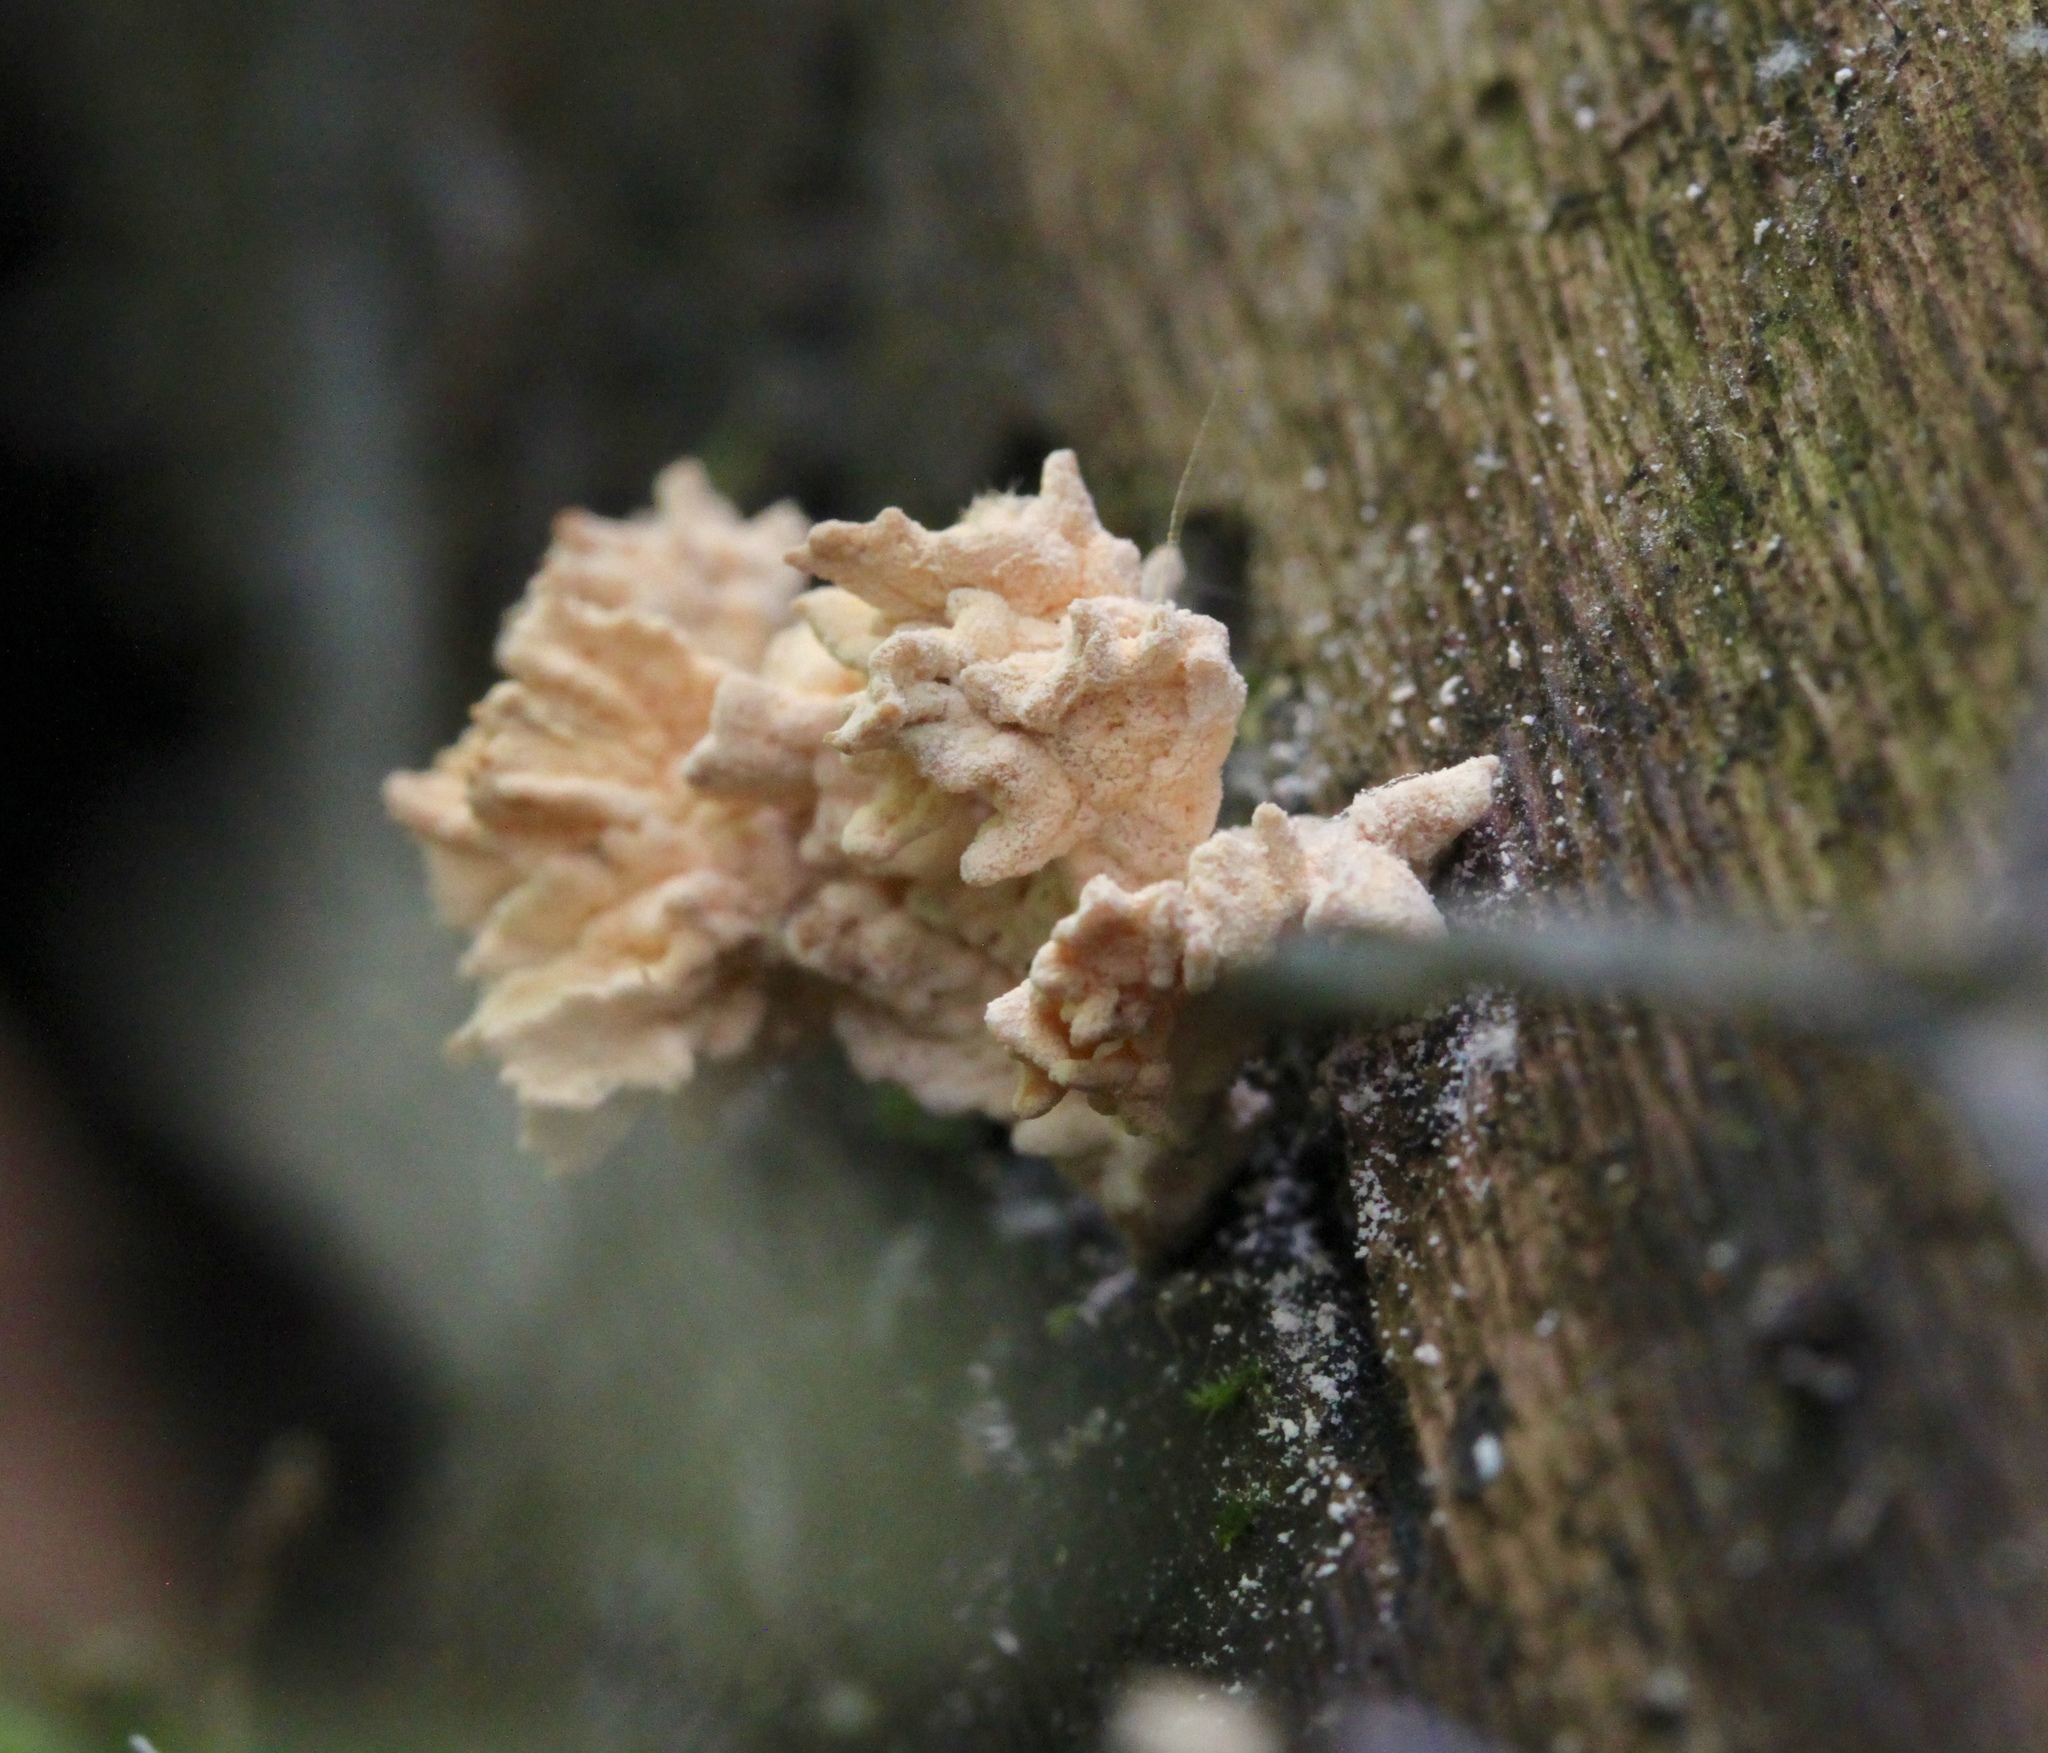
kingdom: Fungi
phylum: Ascomycota
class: Sordariomycetes
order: Xylariales
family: Xylariaceae
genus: Xylaria
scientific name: Xylaria cubensis
